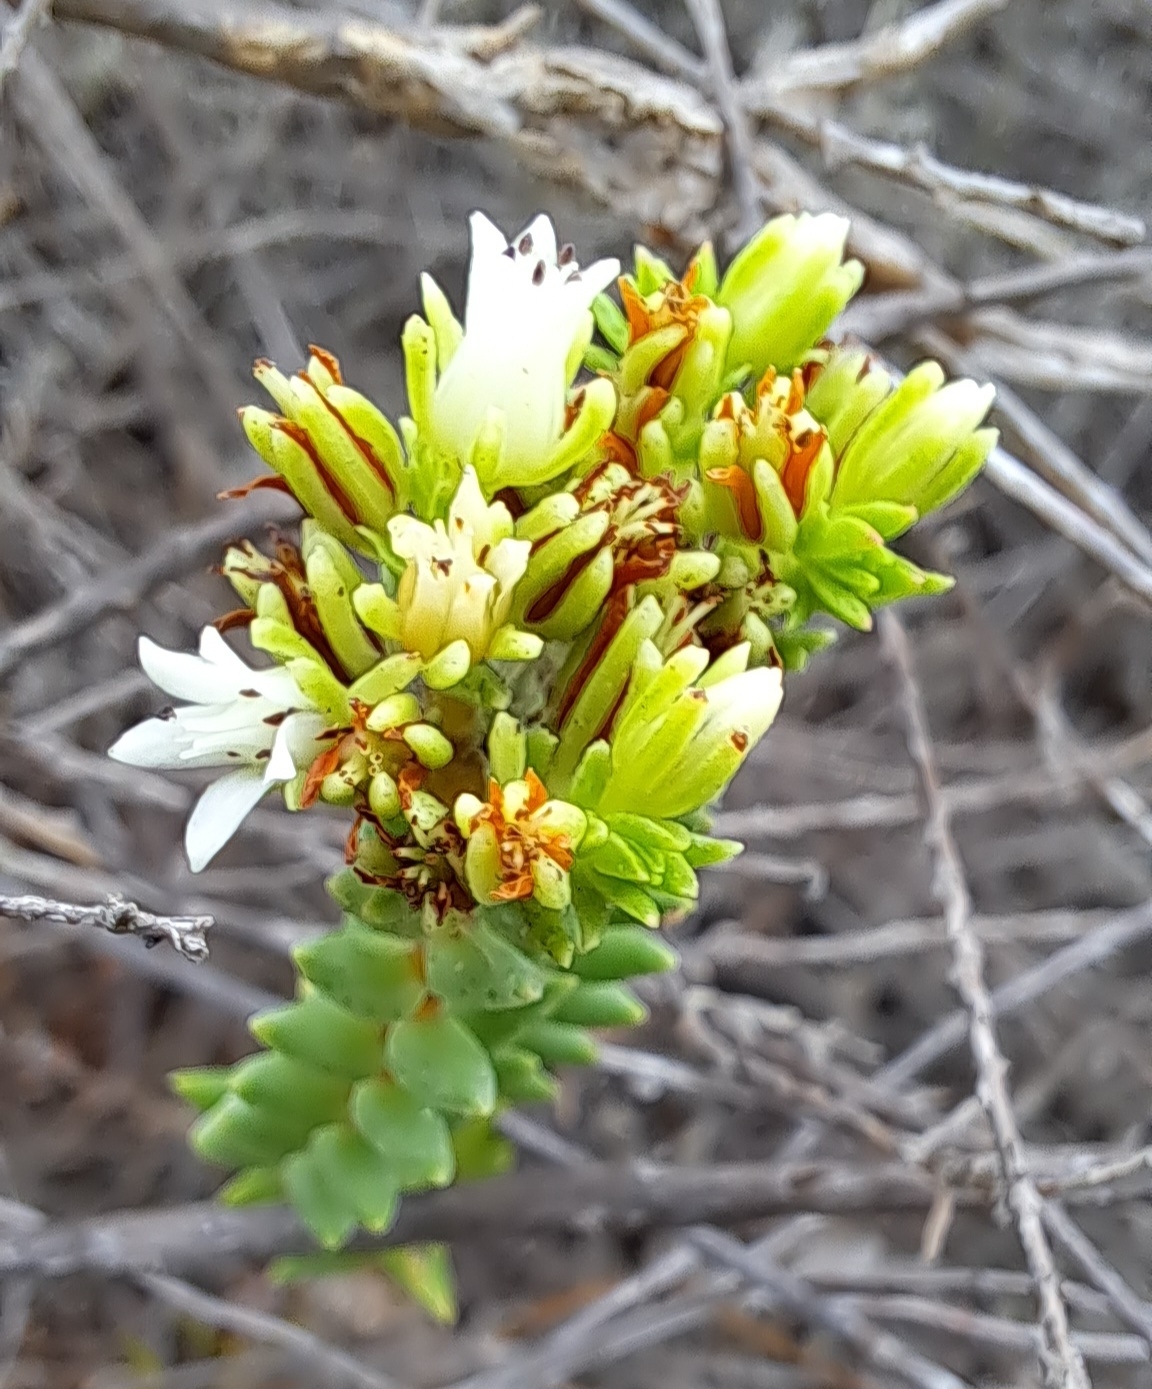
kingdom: Plantae
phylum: Tracheophyta
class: Magnoliopsida
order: Saxifragales
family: Crassulaceae
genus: Crassula
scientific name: Crassula ericoides
